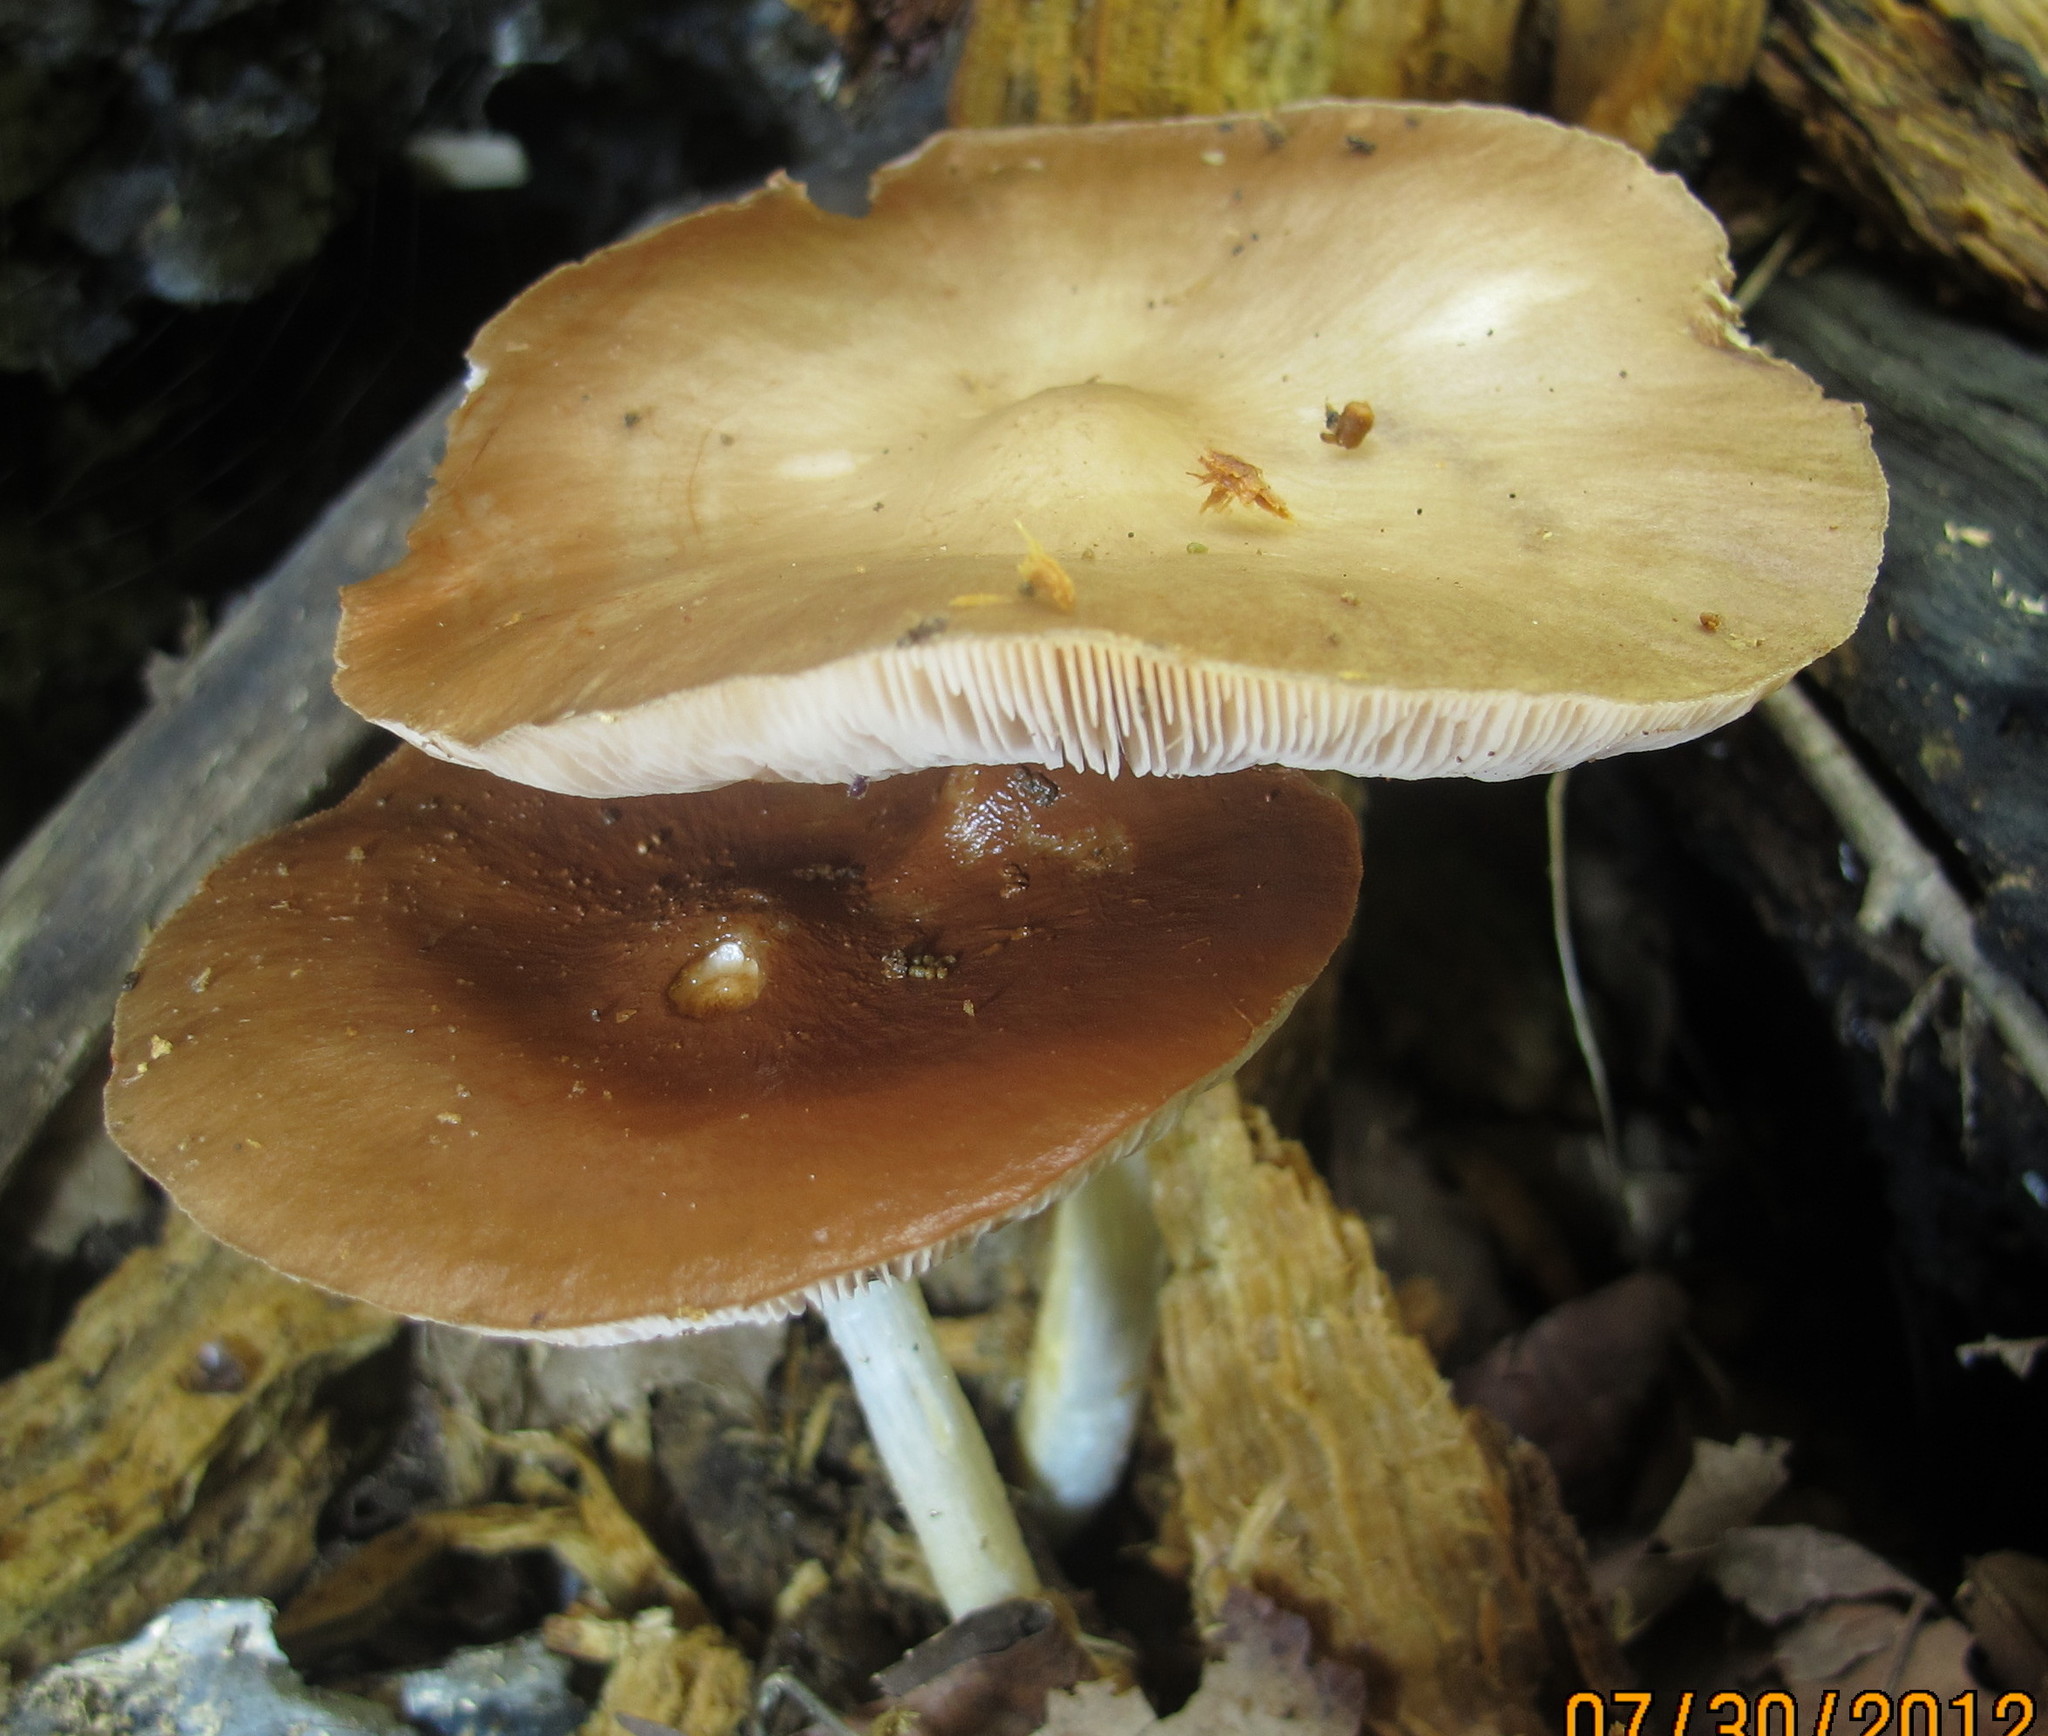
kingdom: Fungi
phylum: Basidiomycota
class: Agaricomycetes
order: Agaricales
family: Pluteaceae
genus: Pluteus
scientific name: Pluteus cervinus
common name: Deer shield
